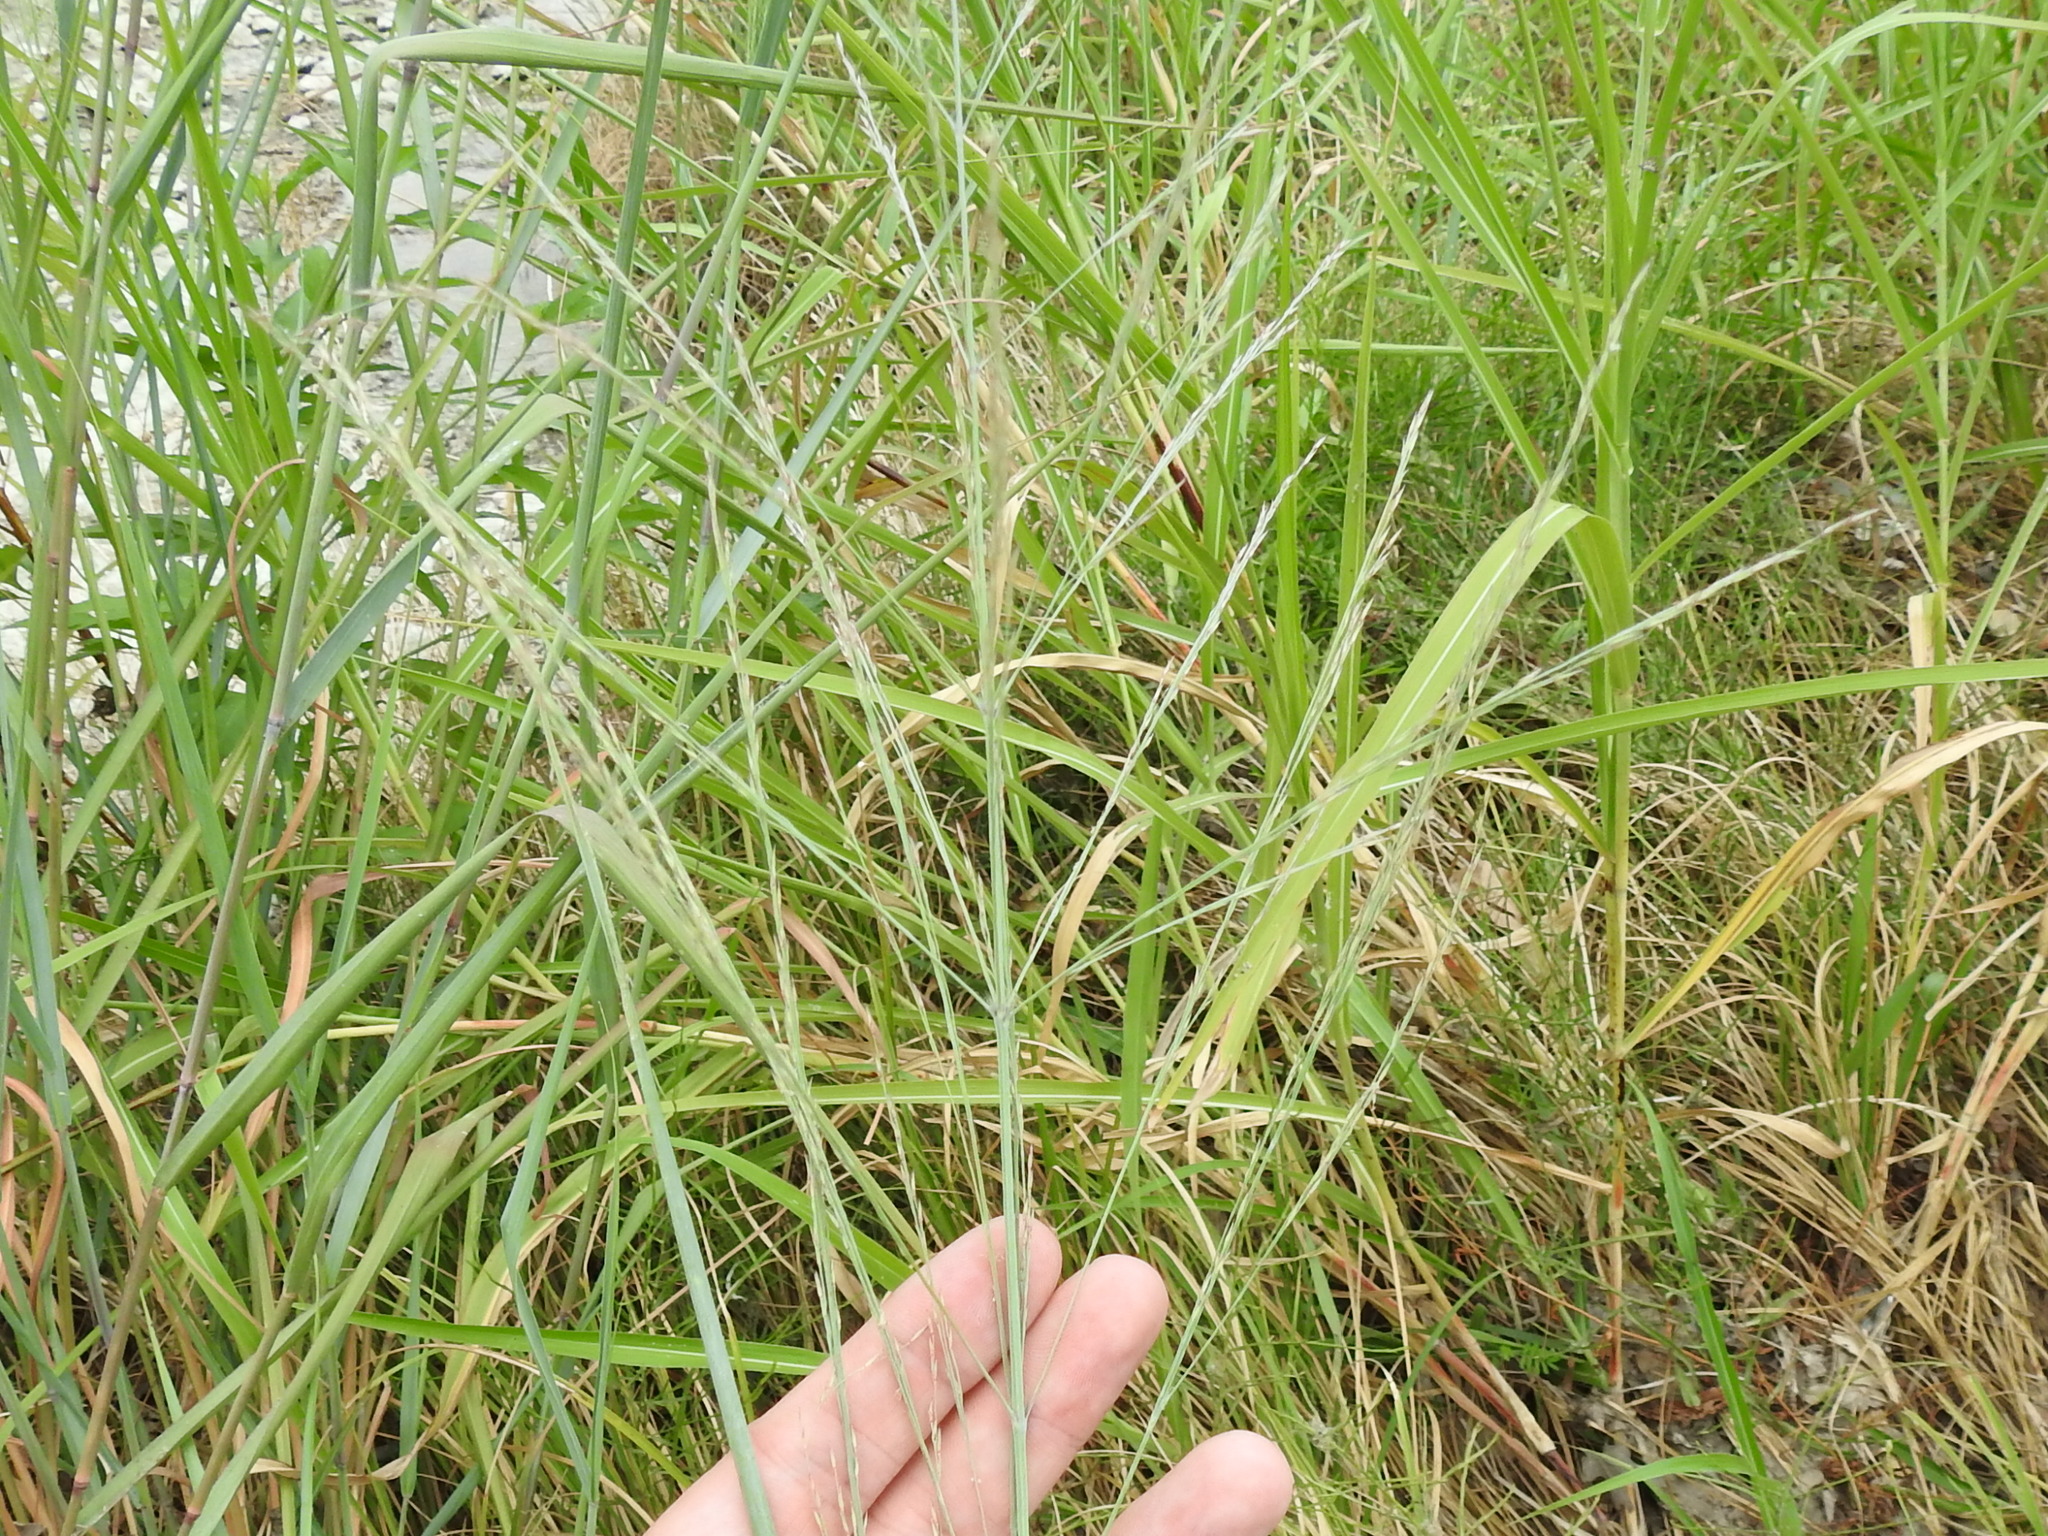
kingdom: Plantae
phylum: Tracheophyta
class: Liliopsida
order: Poales
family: Poaceae
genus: Panicum
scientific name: Panicum virgatum
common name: Switchgrass
